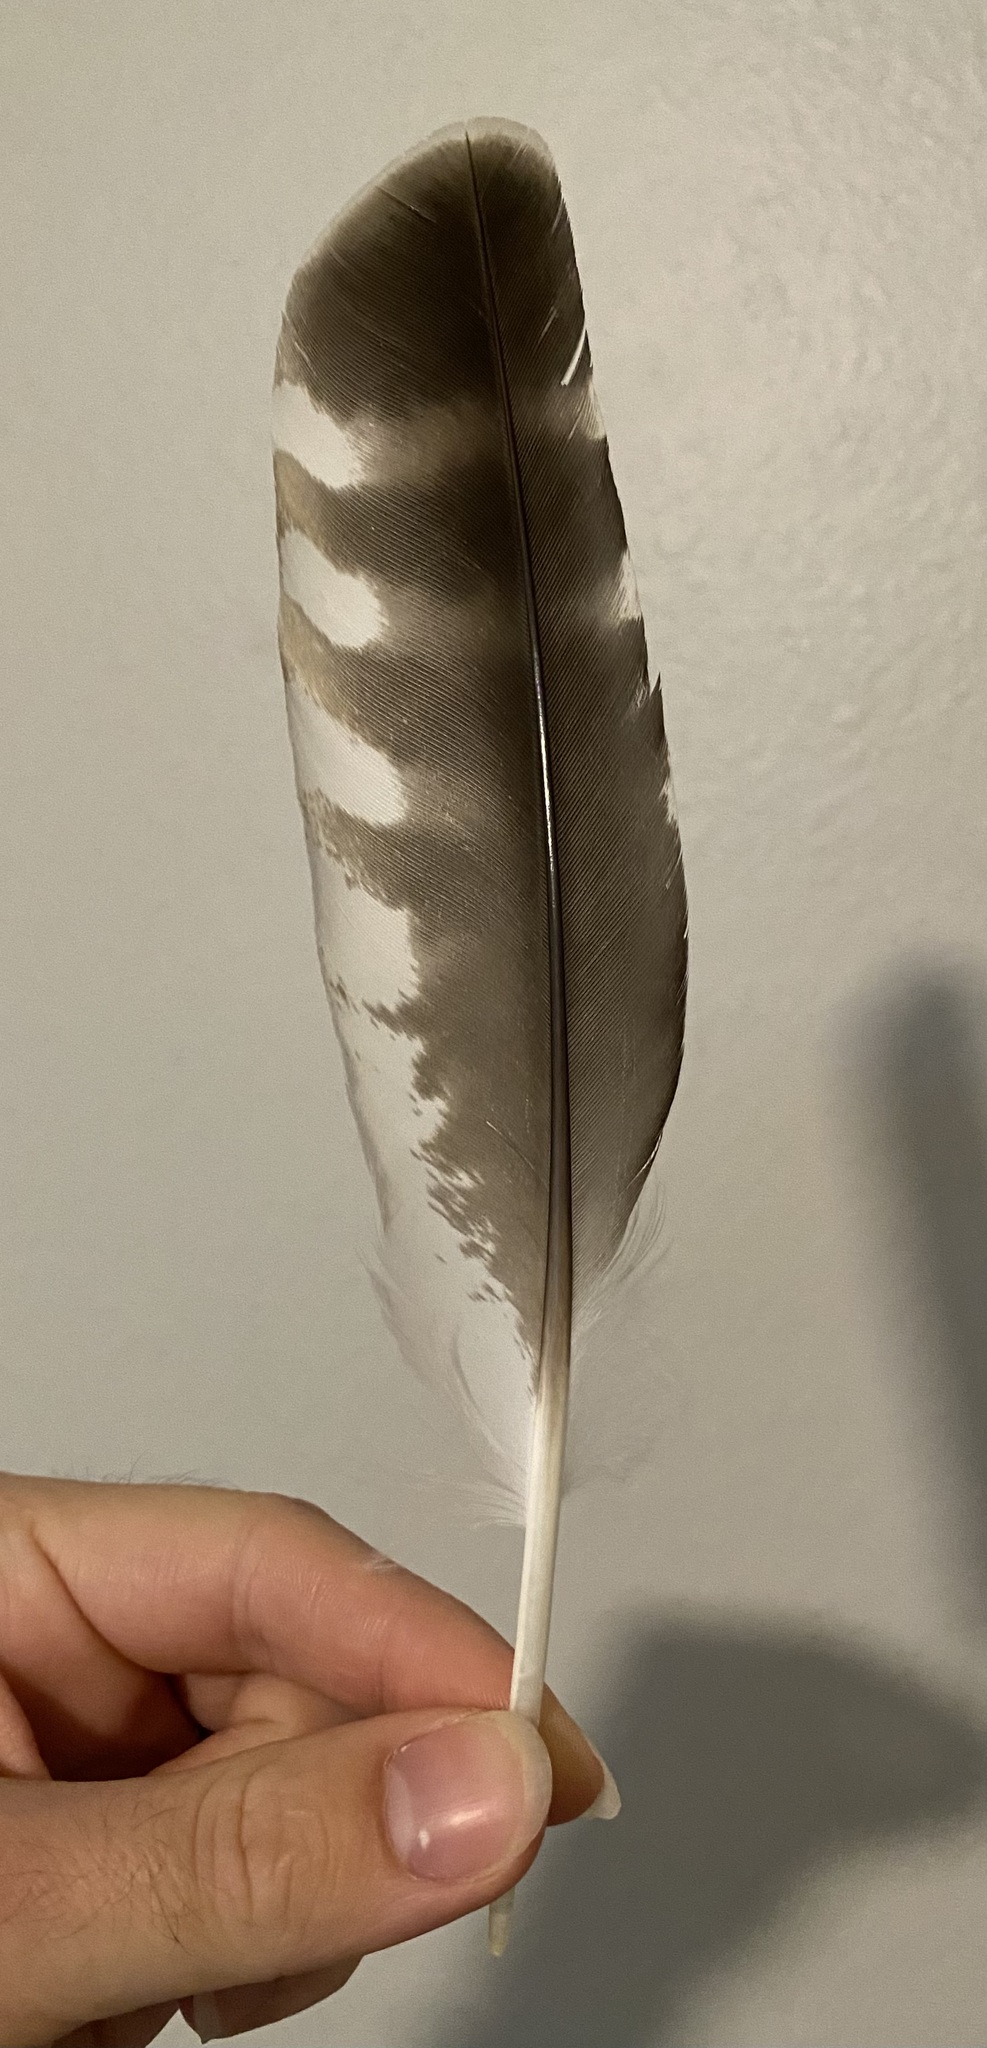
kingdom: Animalia
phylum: Chordata
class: Aves
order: Accipitriformes
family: Accipitridae
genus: Buteo
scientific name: Buteo lineatus
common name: Red-shouldered hawk
